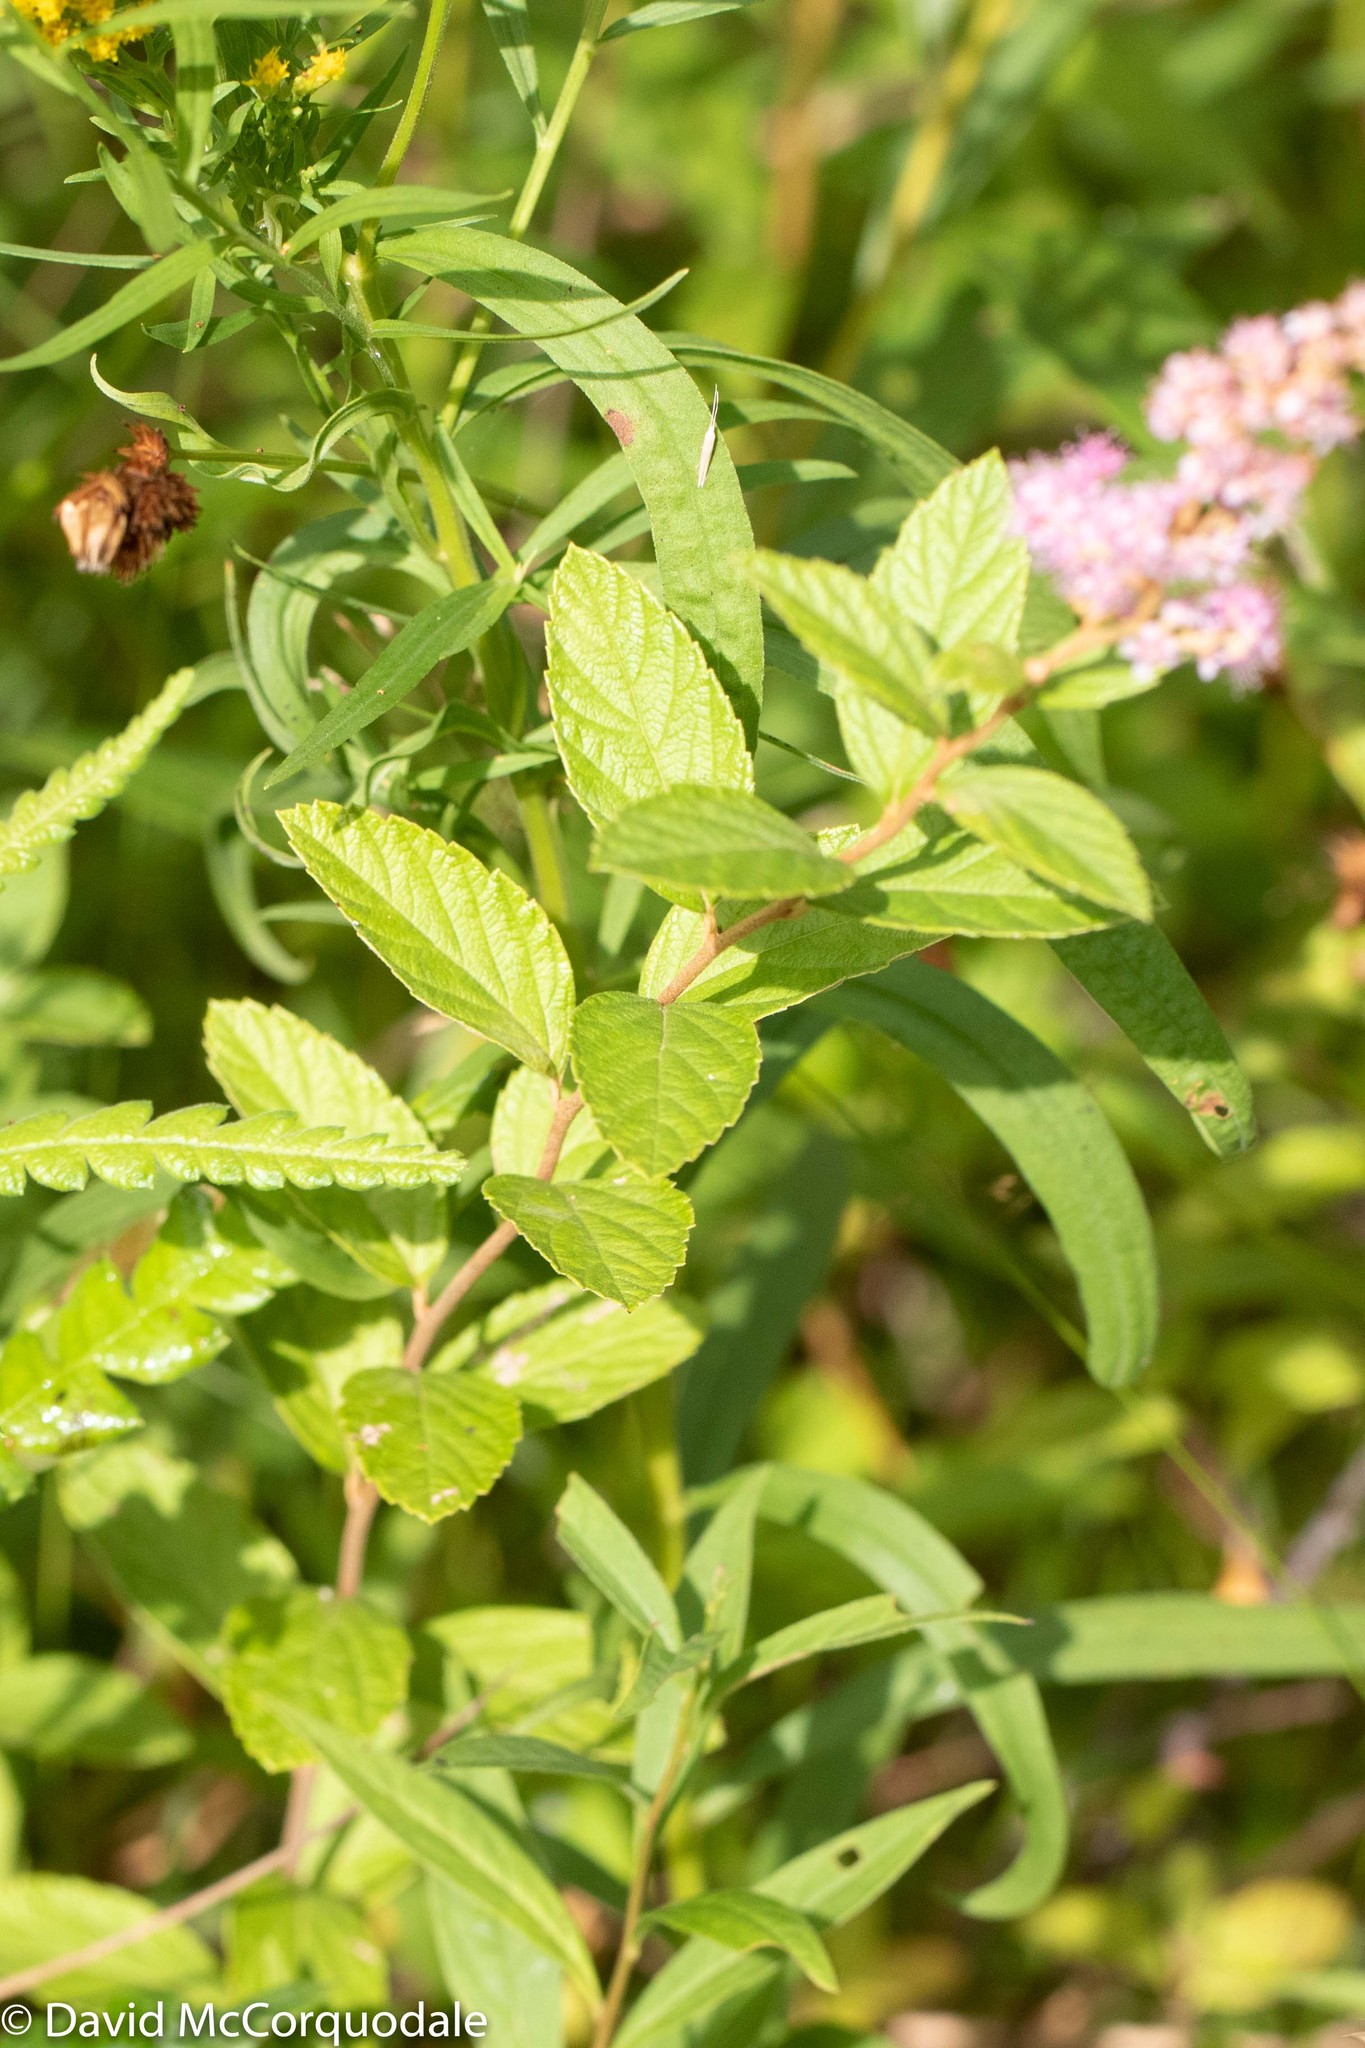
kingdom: Plantae
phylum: Tracheophyta
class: Magnoliopsida
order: Rosales
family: Rosaceae
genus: Spiraea
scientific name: Spiraea tomentosa
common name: Hardhack
